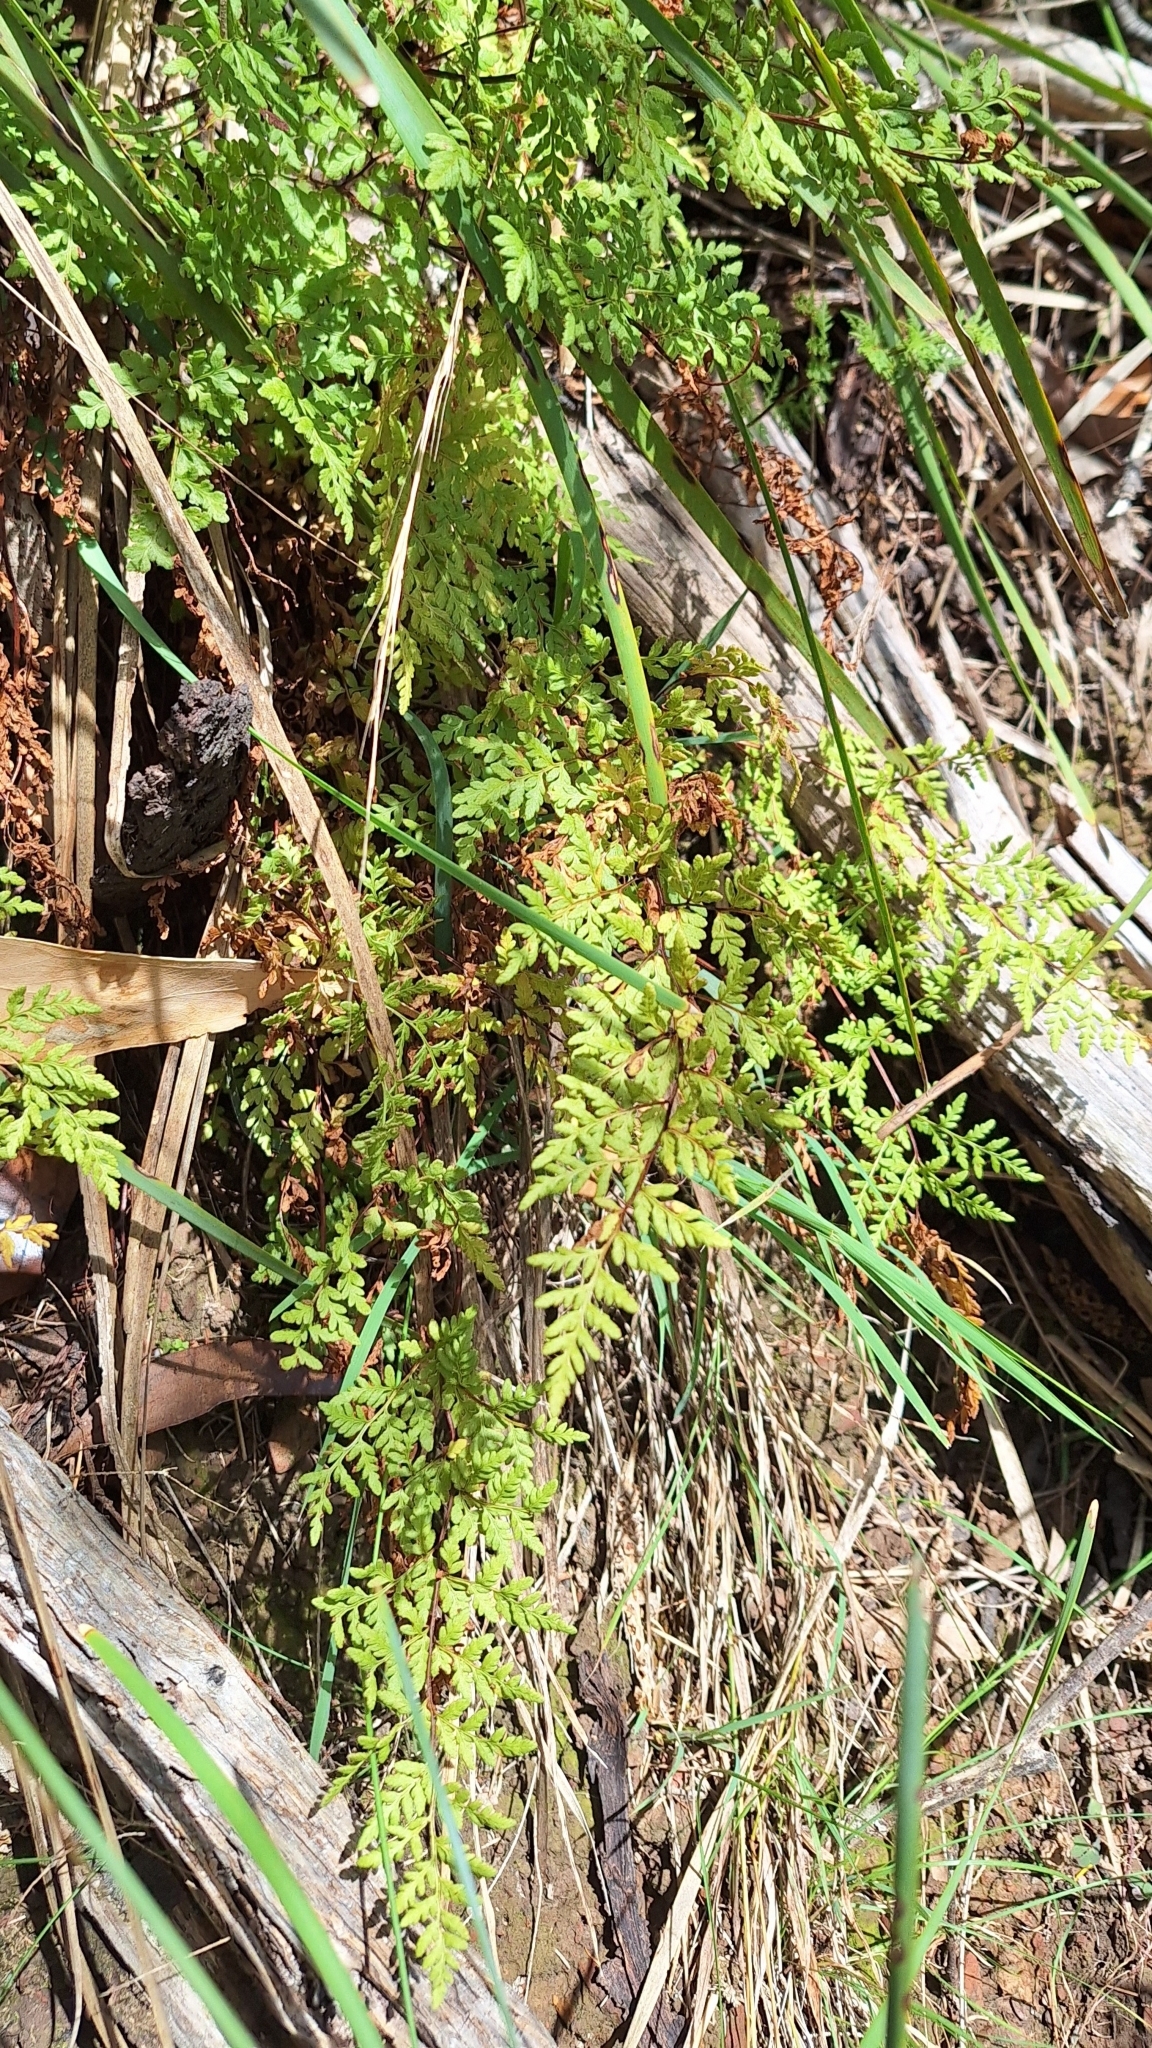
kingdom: Plantae
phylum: Tracheophyta
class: Polypodiopsida
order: Polypodiales
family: Pteridaceae
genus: Cheilanthes
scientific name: Cheilanthes austrotenuifolia
